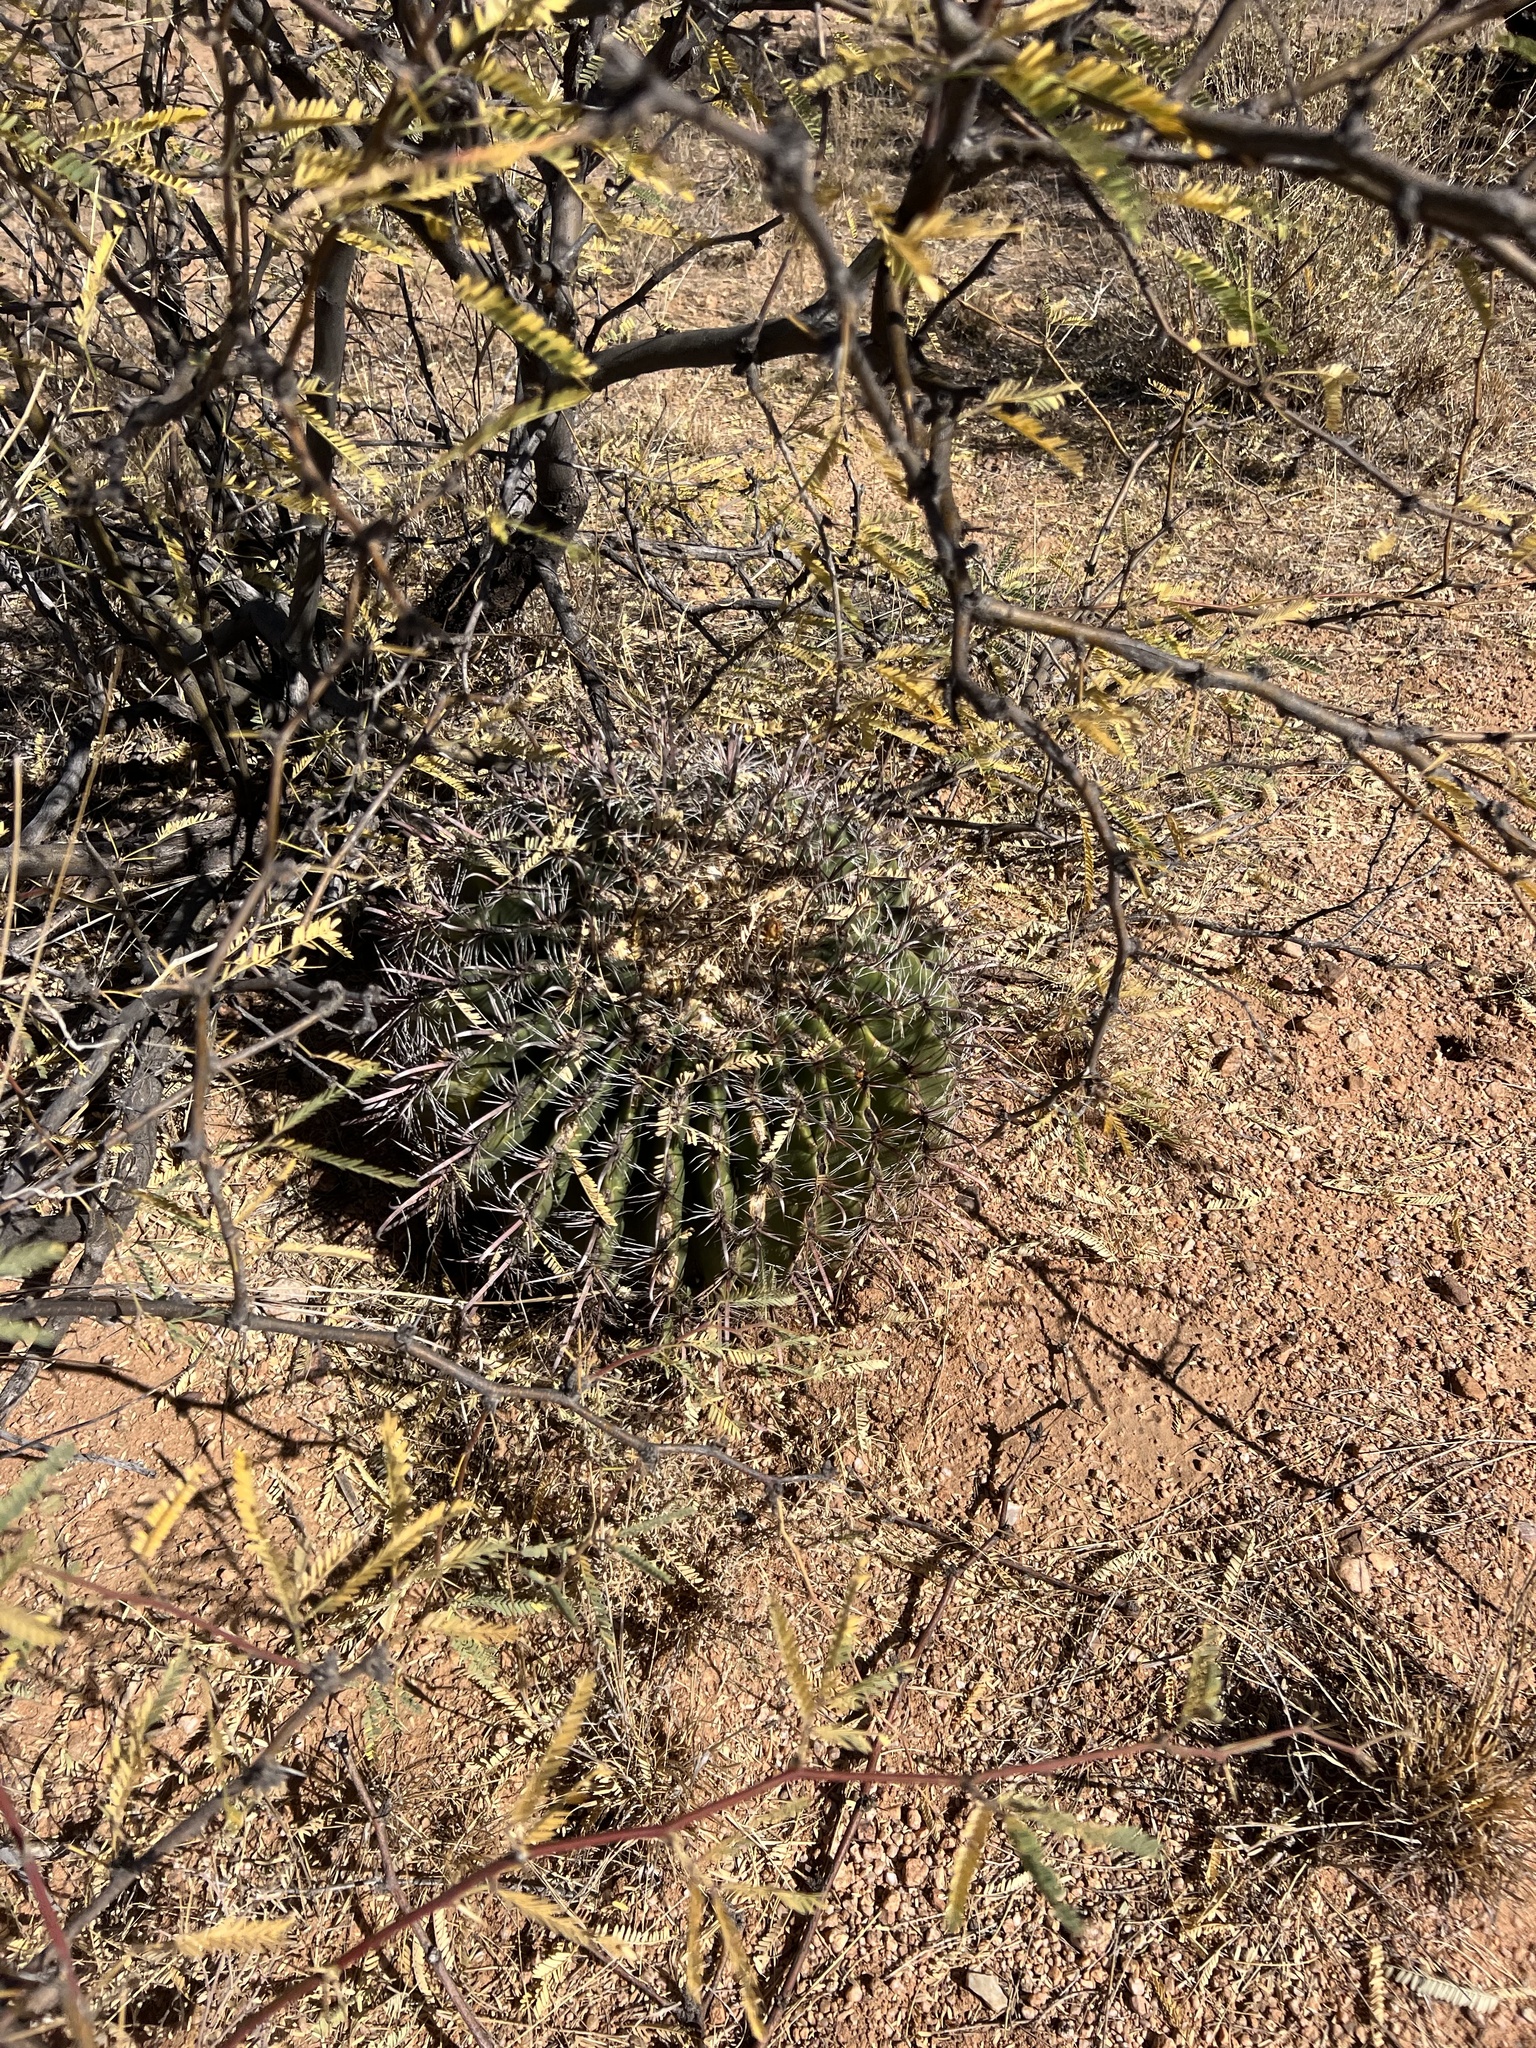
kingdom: Plantae
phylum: Tracheophyta
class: Magnoliopsida
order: Caryophyllales
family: Cactaceae
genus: Ferocactus
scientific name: Ferocactus wislizeni
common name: Candy barrel cactus
